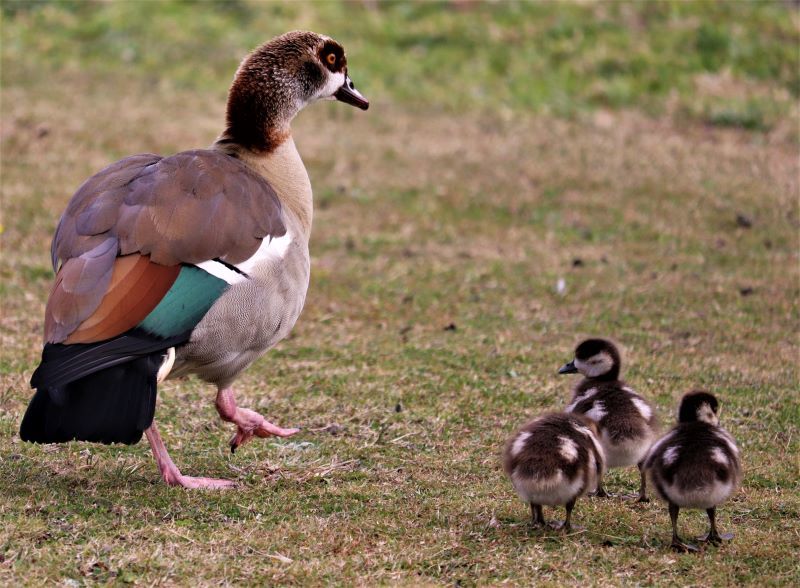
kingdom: Animalia
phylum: Chordata
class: Aves
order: Anseriformes
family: Anatidae
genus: Alopochen
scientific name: Alopochen aegyptiaca
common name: Egyptian goose
